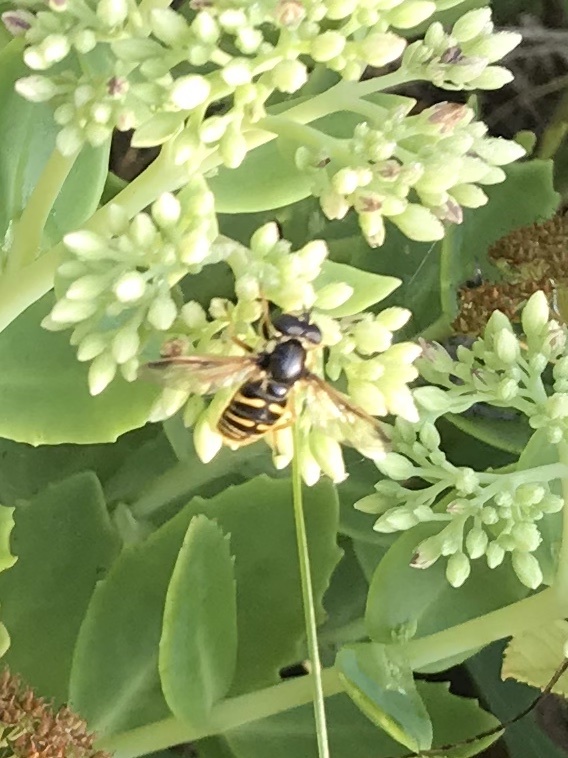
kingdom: Animalia
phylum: Arthropoda
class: Insecta
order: Diptera
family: Syrphidae
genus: Sericomyia
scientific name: Sericomyia chrysotoxoides
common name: Oblique-banded pond fly
